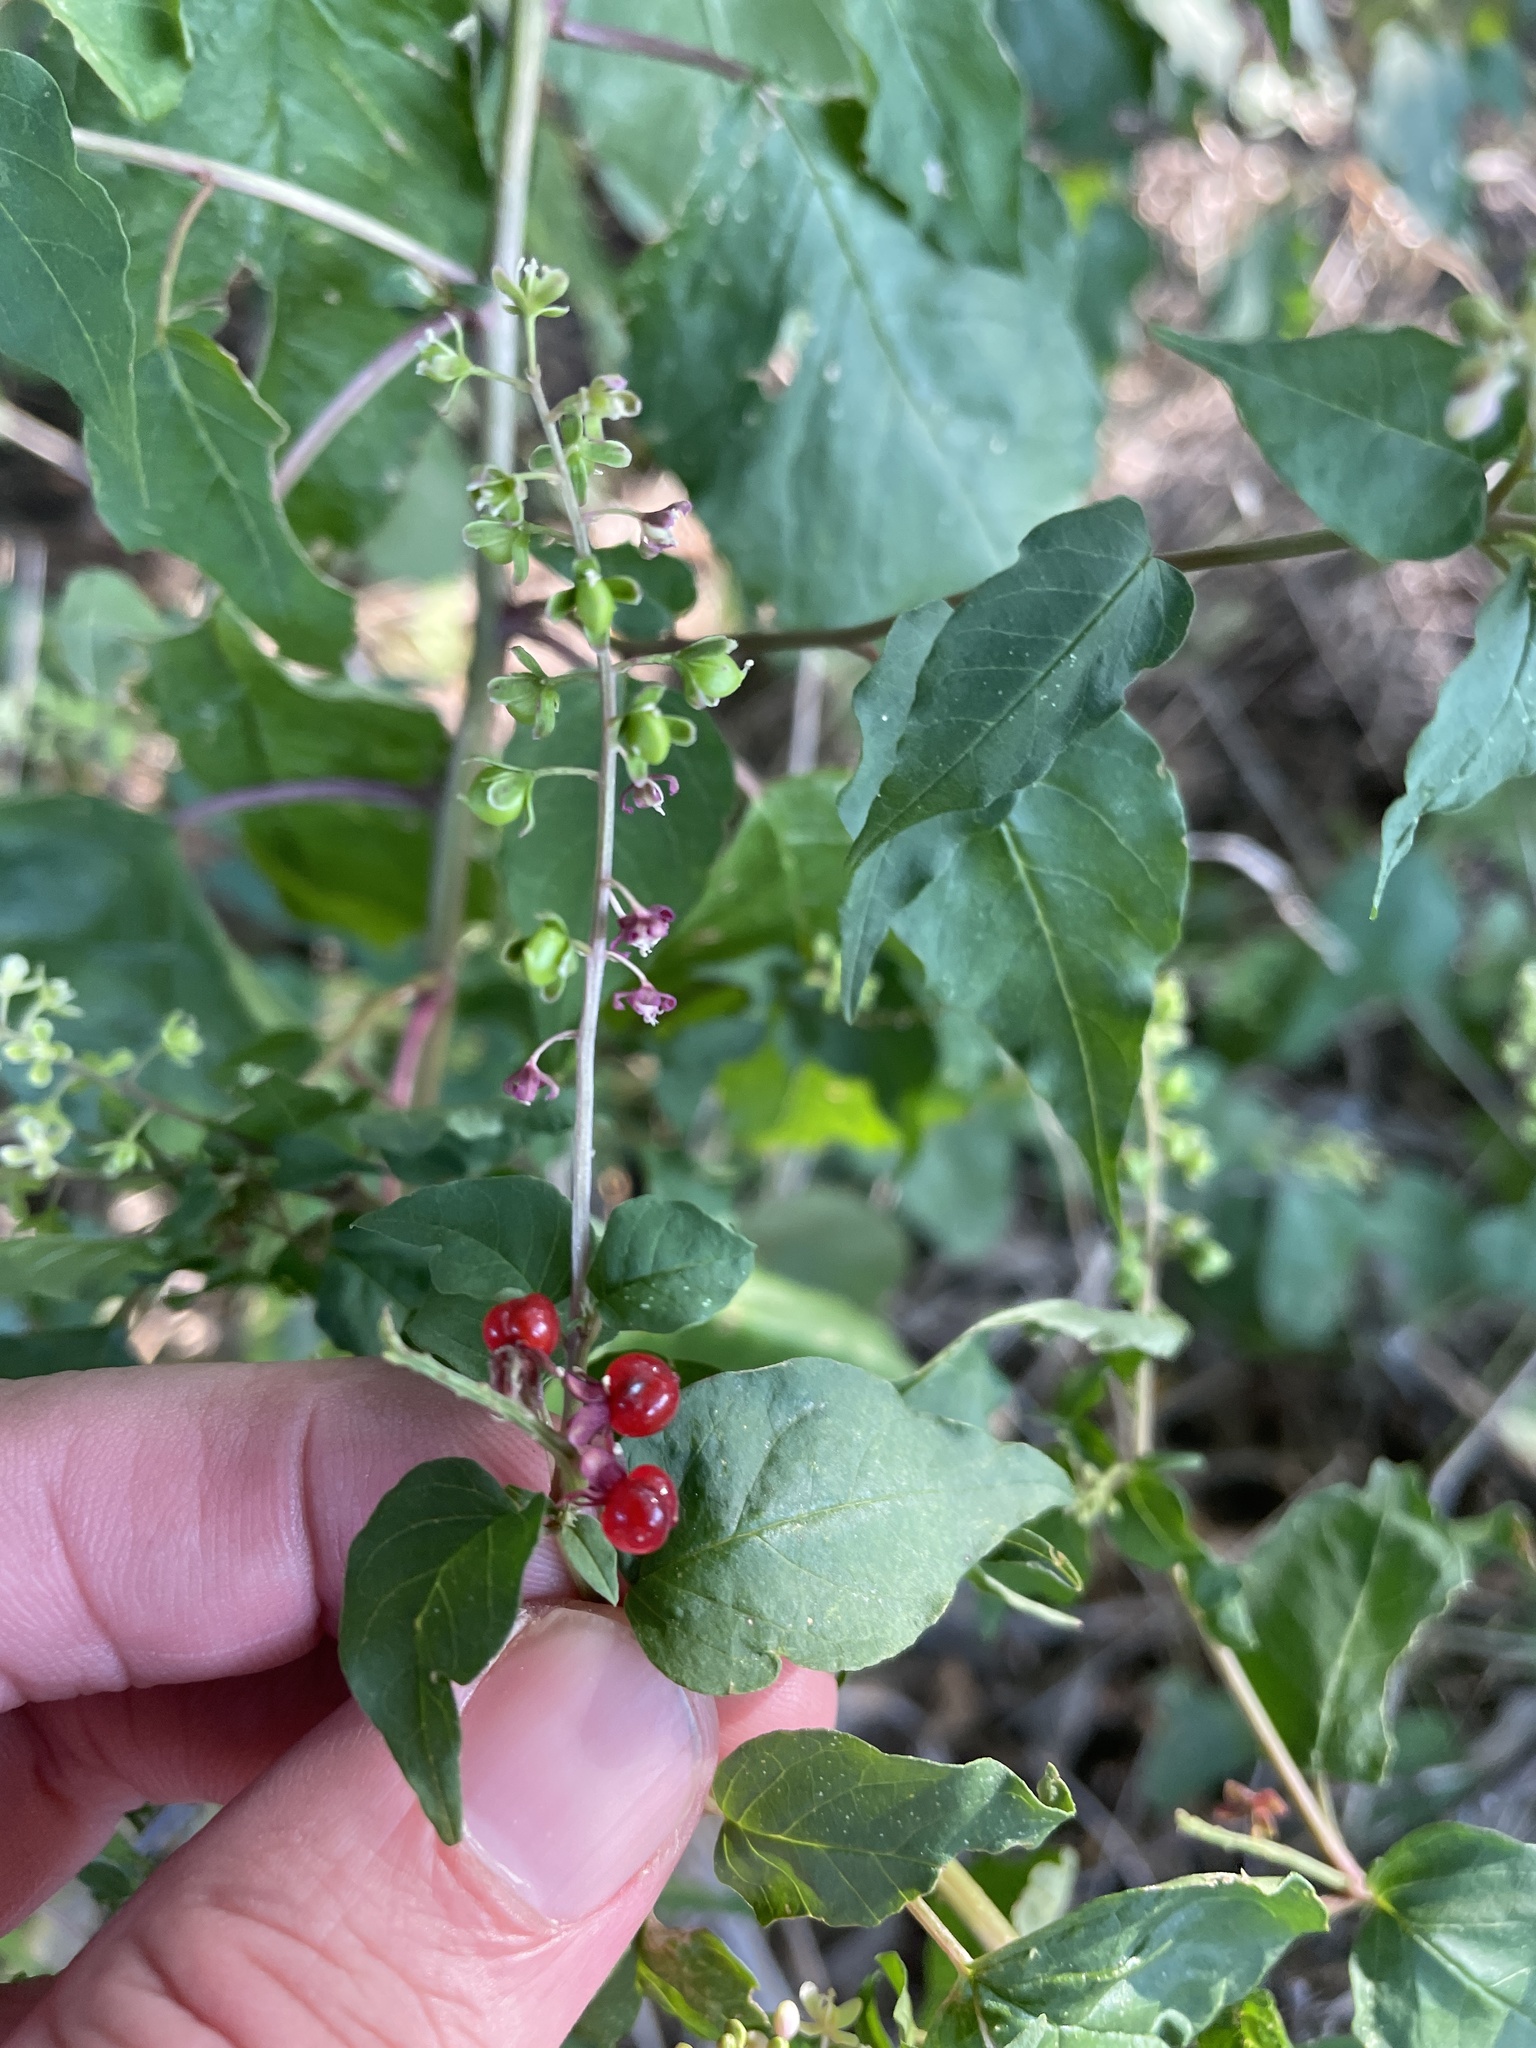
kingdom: Plantae
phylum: Tracheophyta
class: Magnoliopsida
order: Caryophyllales
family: Phytolaccaceae
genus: Rivina
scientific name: Rivina humilis
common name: Rougeplant
